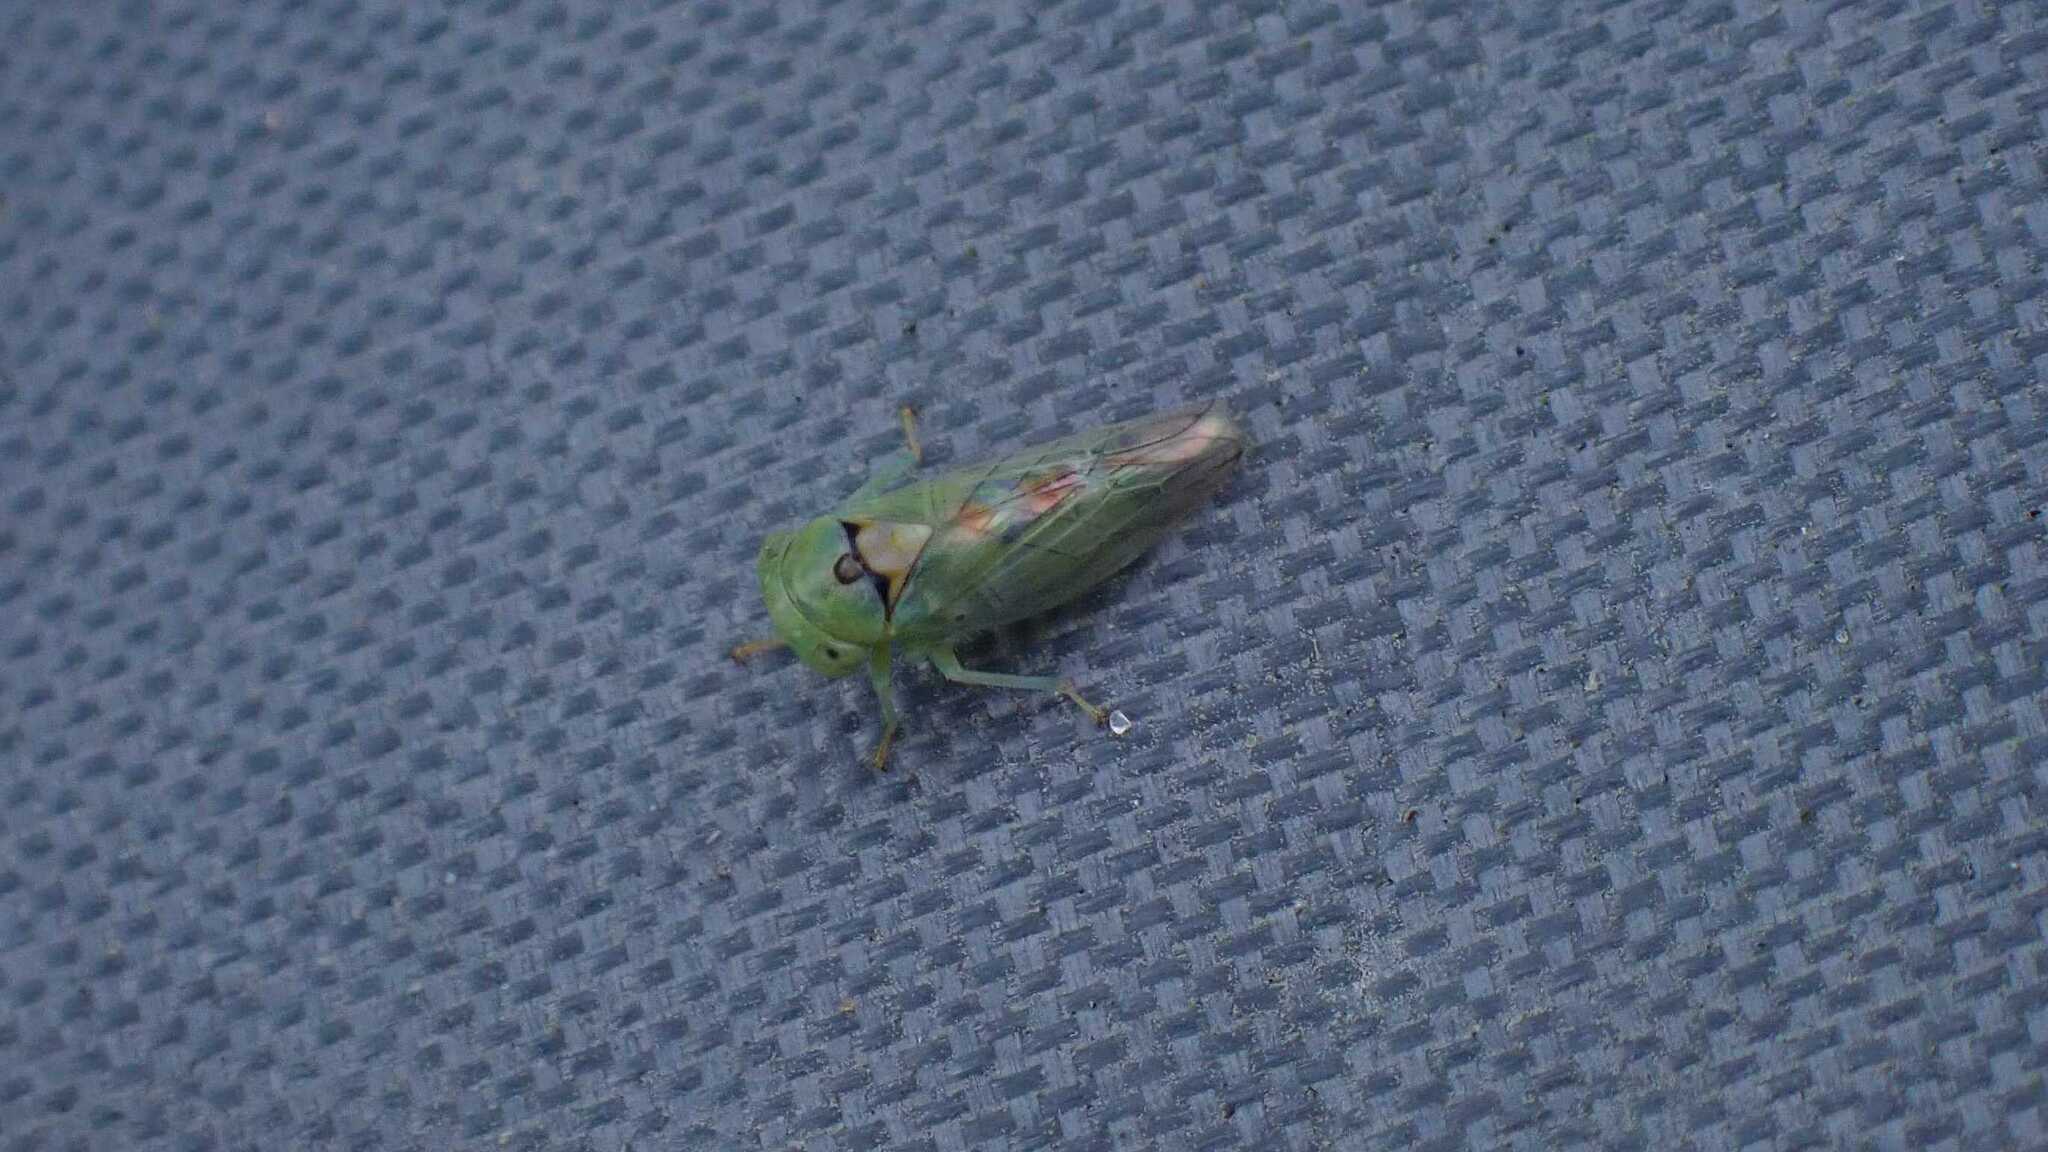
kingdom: Animalia
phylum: Arthropoda
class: Insecta
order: Hemiptera
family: Cicadellidae
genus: Viridicerus
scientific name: Viridicerus ustulatus
